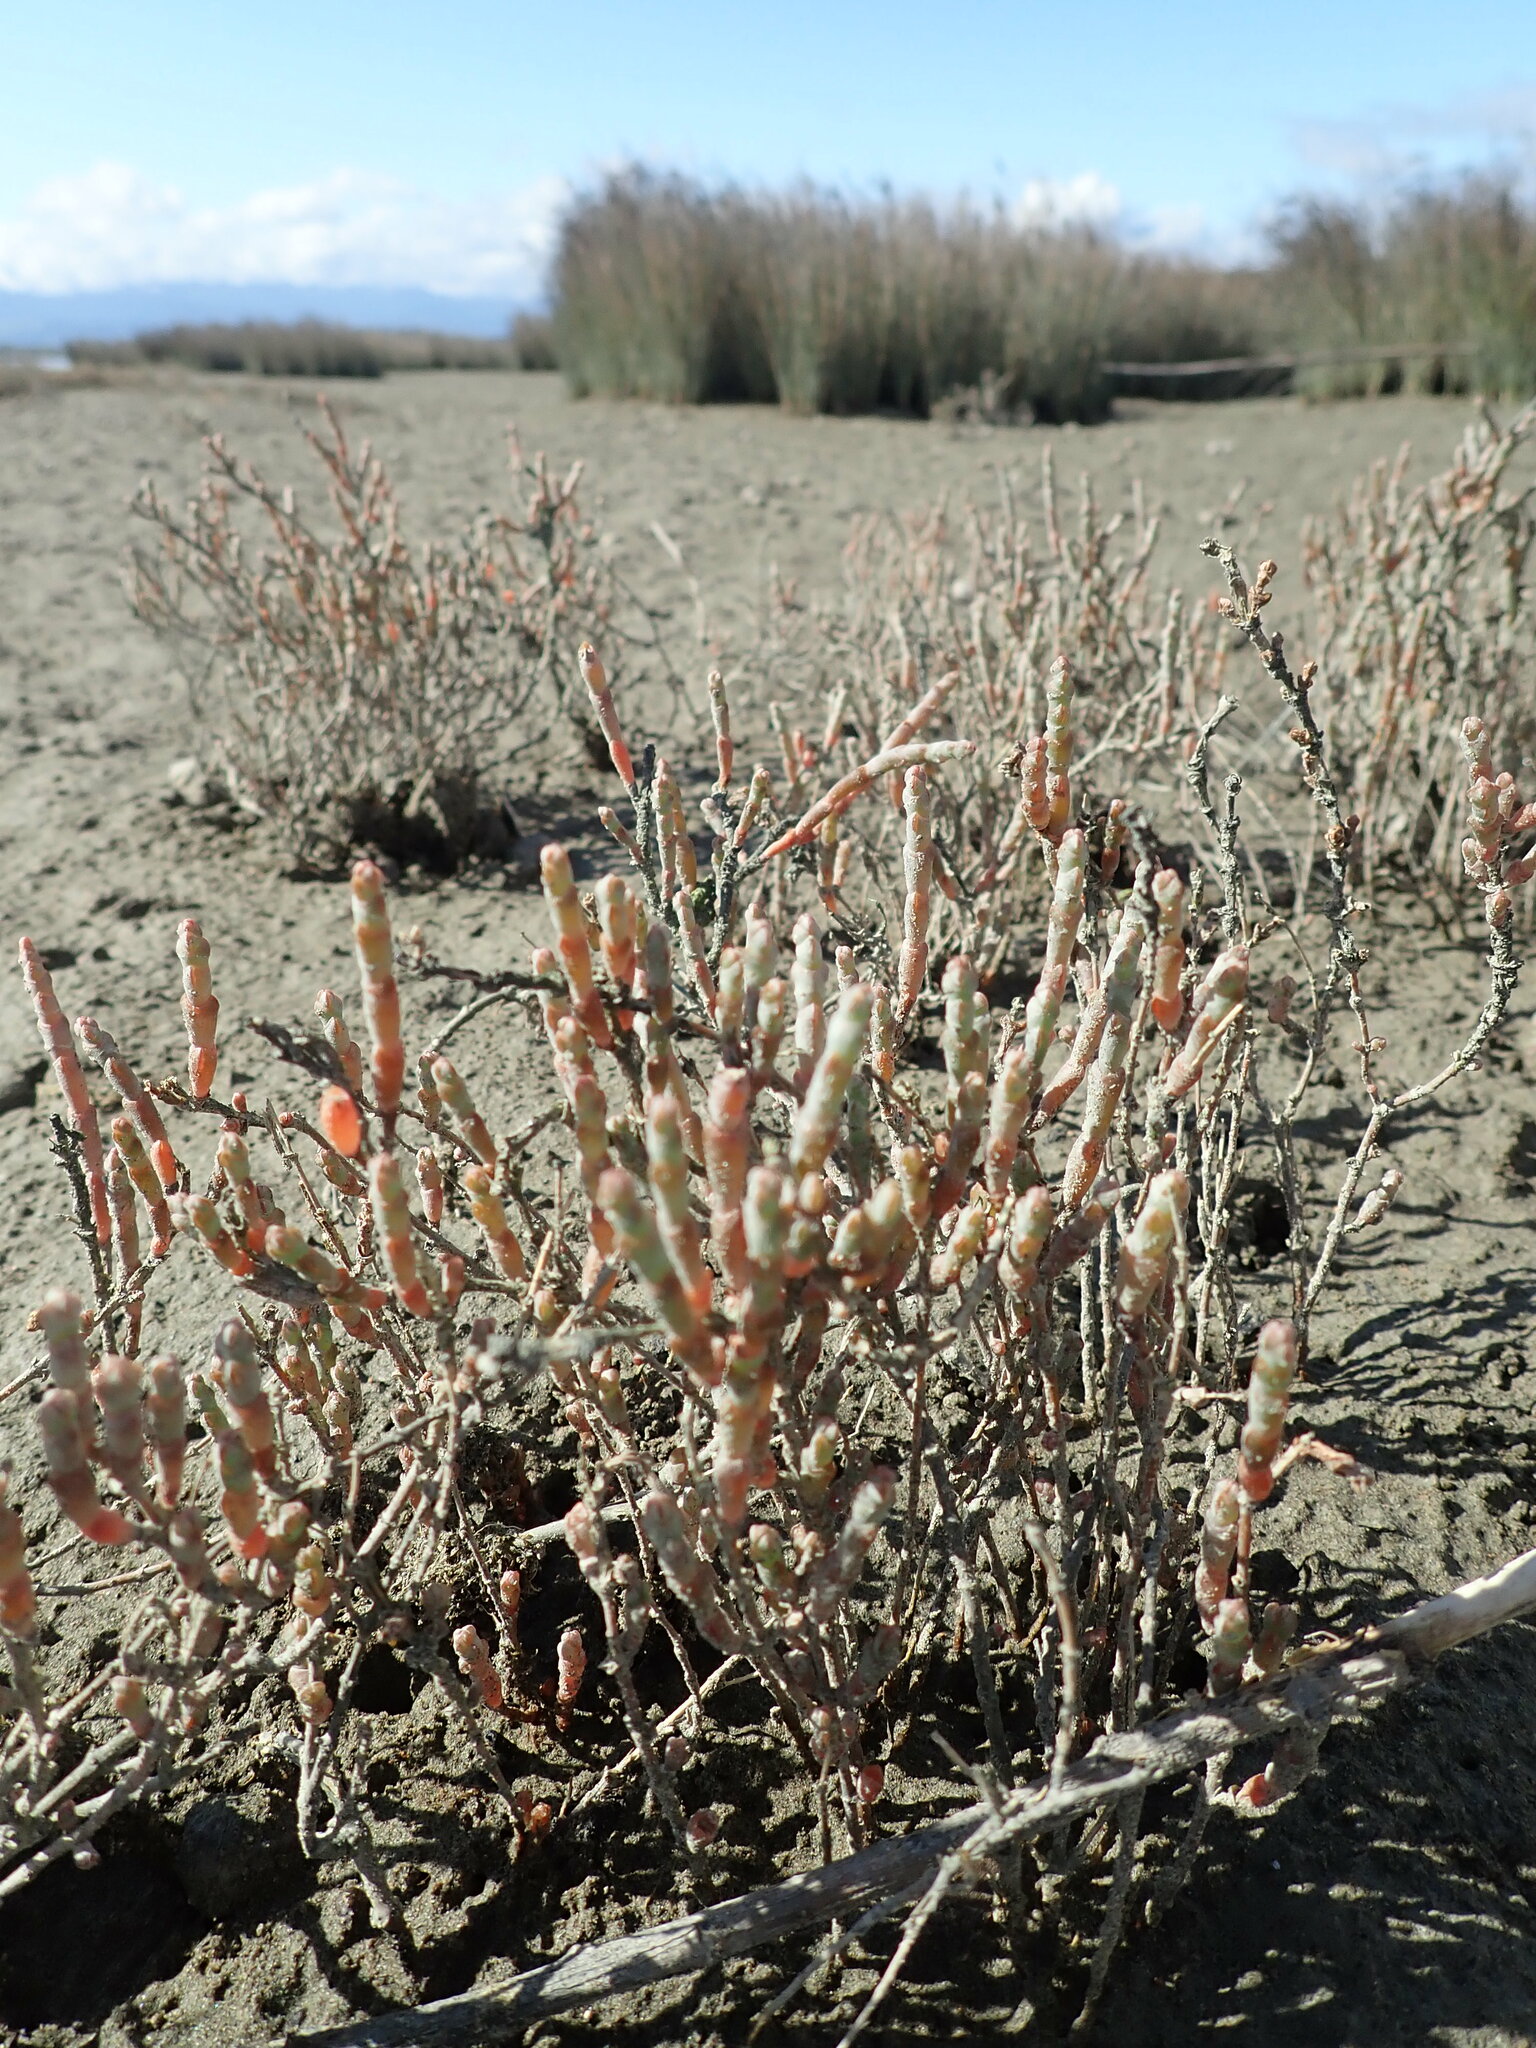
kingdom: Plantae
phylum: Tracheophyta
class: Magnoliopsida
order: Caryophyllales
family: Amaranthaceae
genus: Salicornia
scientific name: Salicornia quinqueflora
